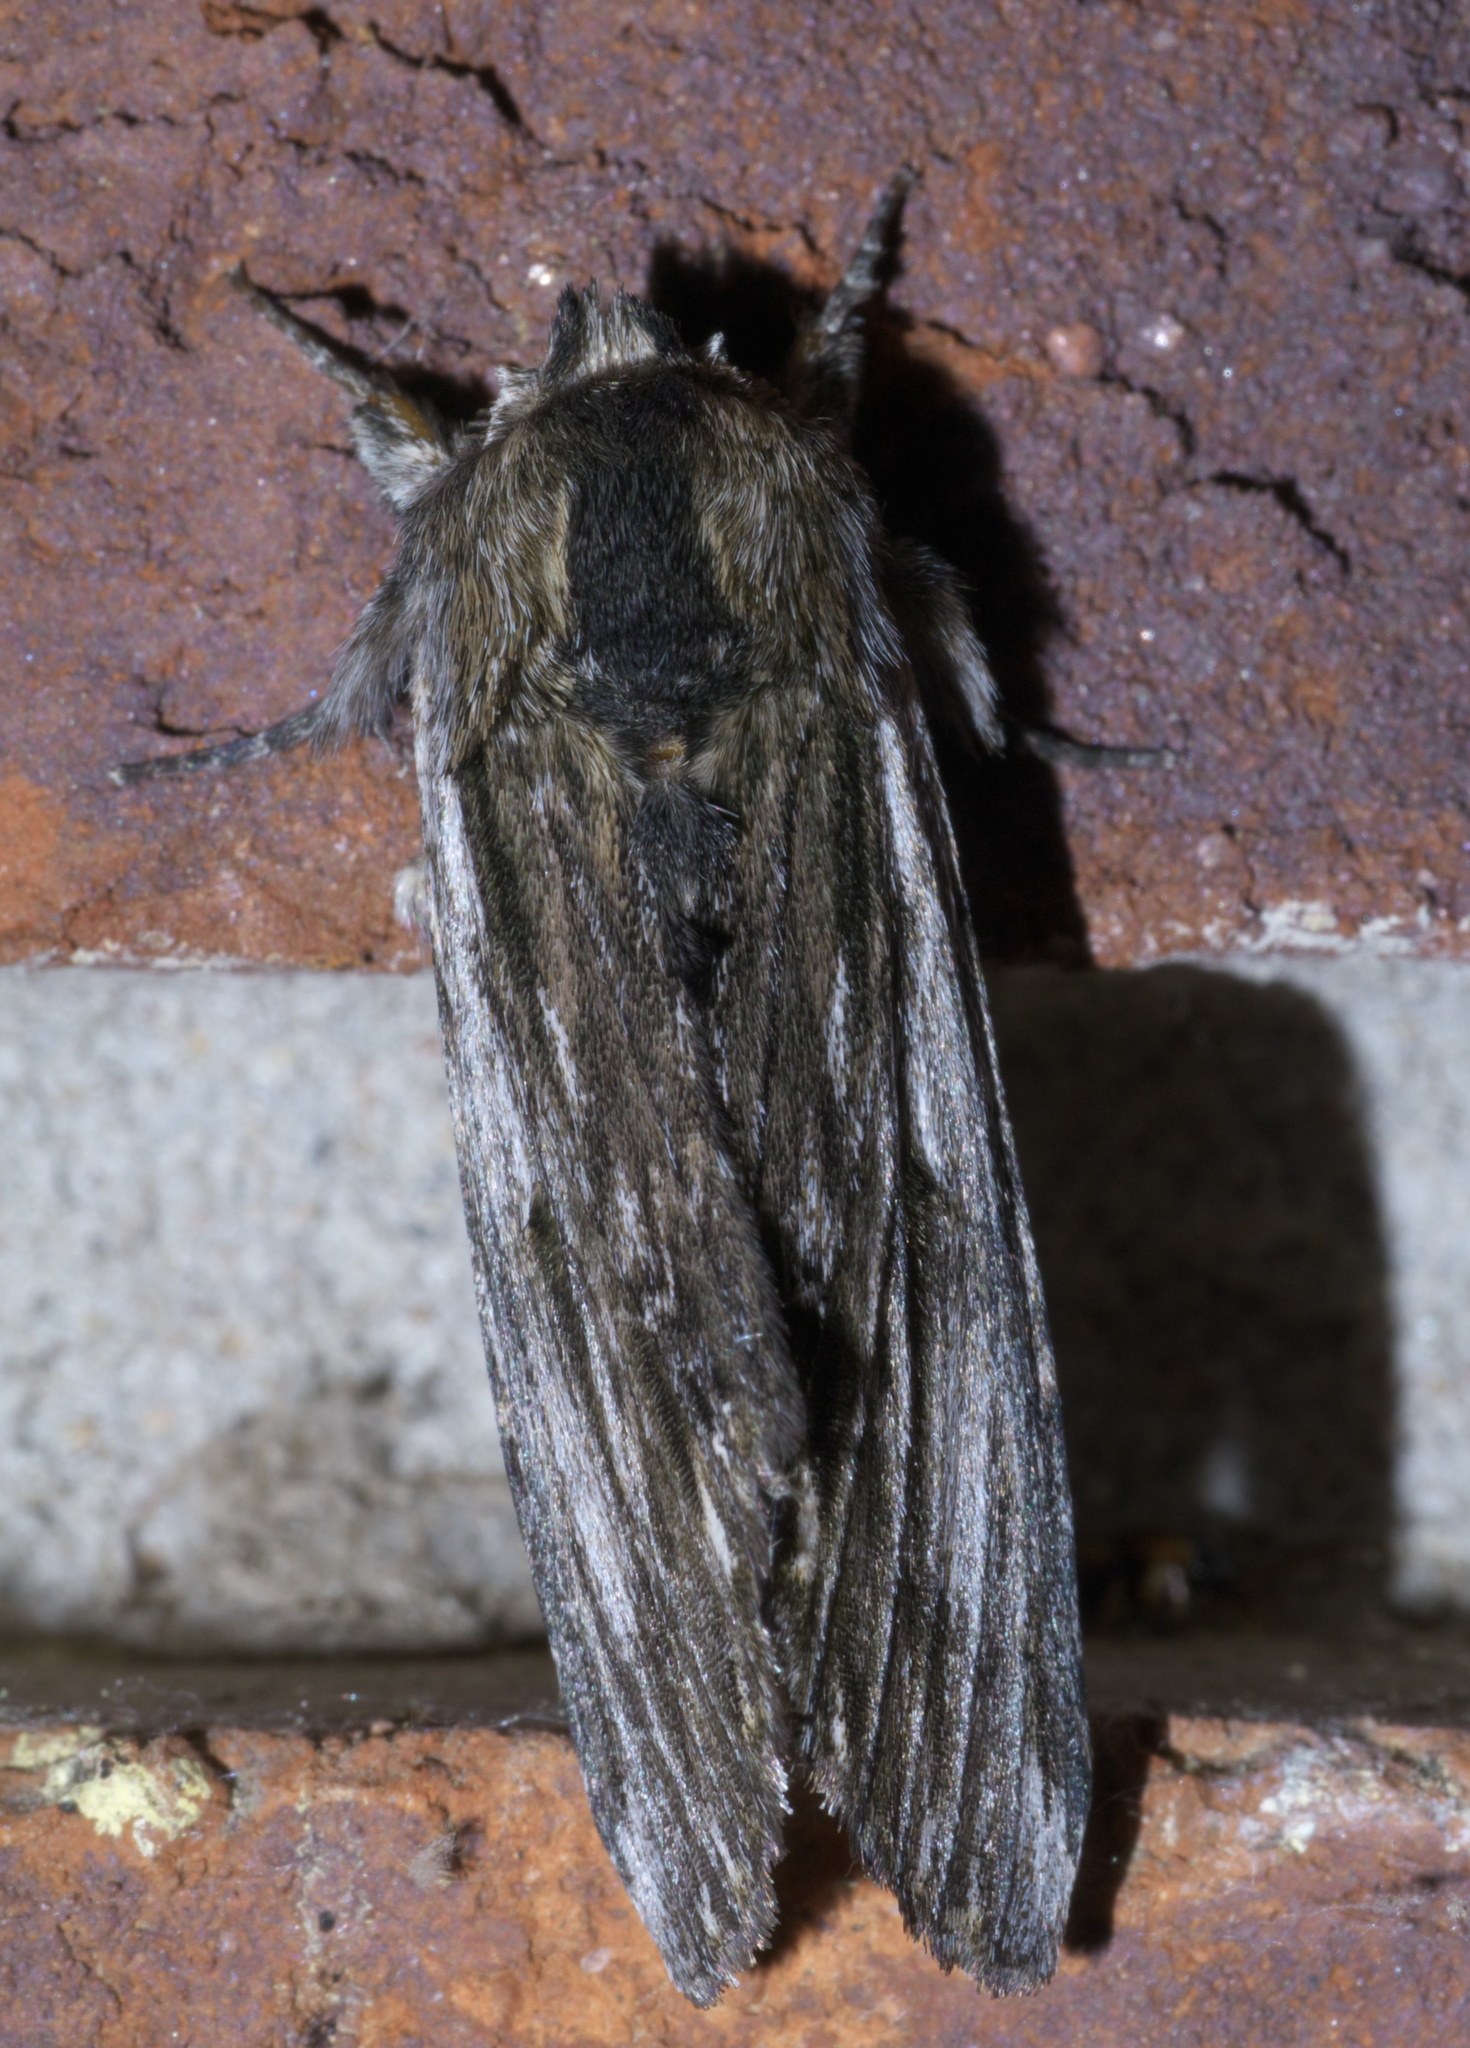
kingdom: Animalia
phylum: Arthropoda
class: Insecta
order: Lepidoptera
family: Notodontidae
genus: Oligocentria
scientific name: Oligocentria Ianassa lignicolor
